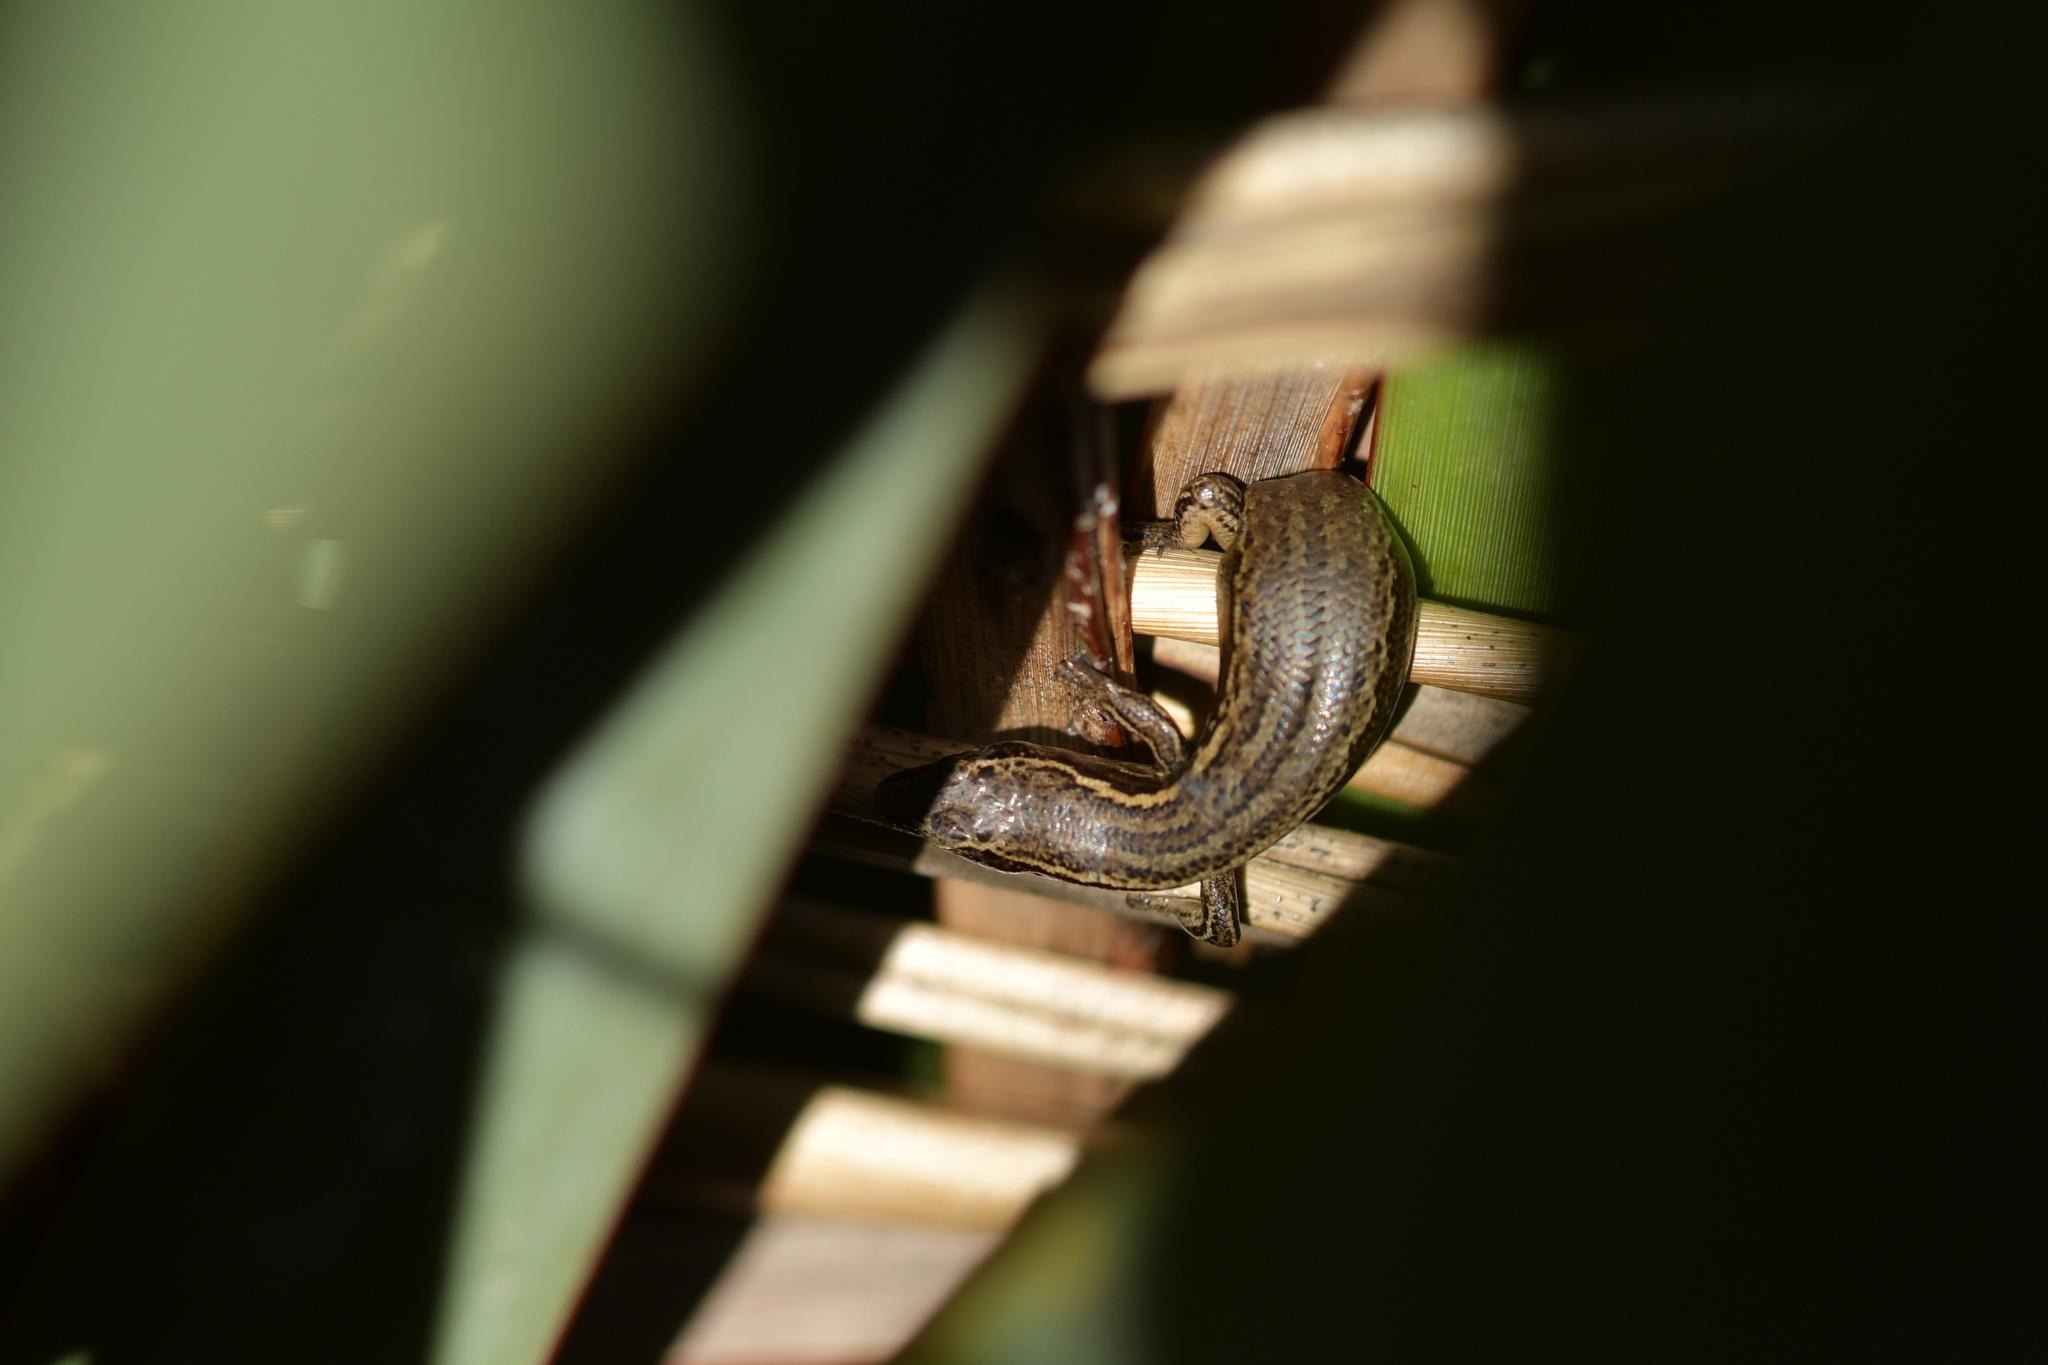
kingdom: Animalia
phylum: Chordata
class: Squamata
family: Scincidae
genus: Oligosoma
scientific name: Oligosoma polychroma
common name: Common new zealand skink
